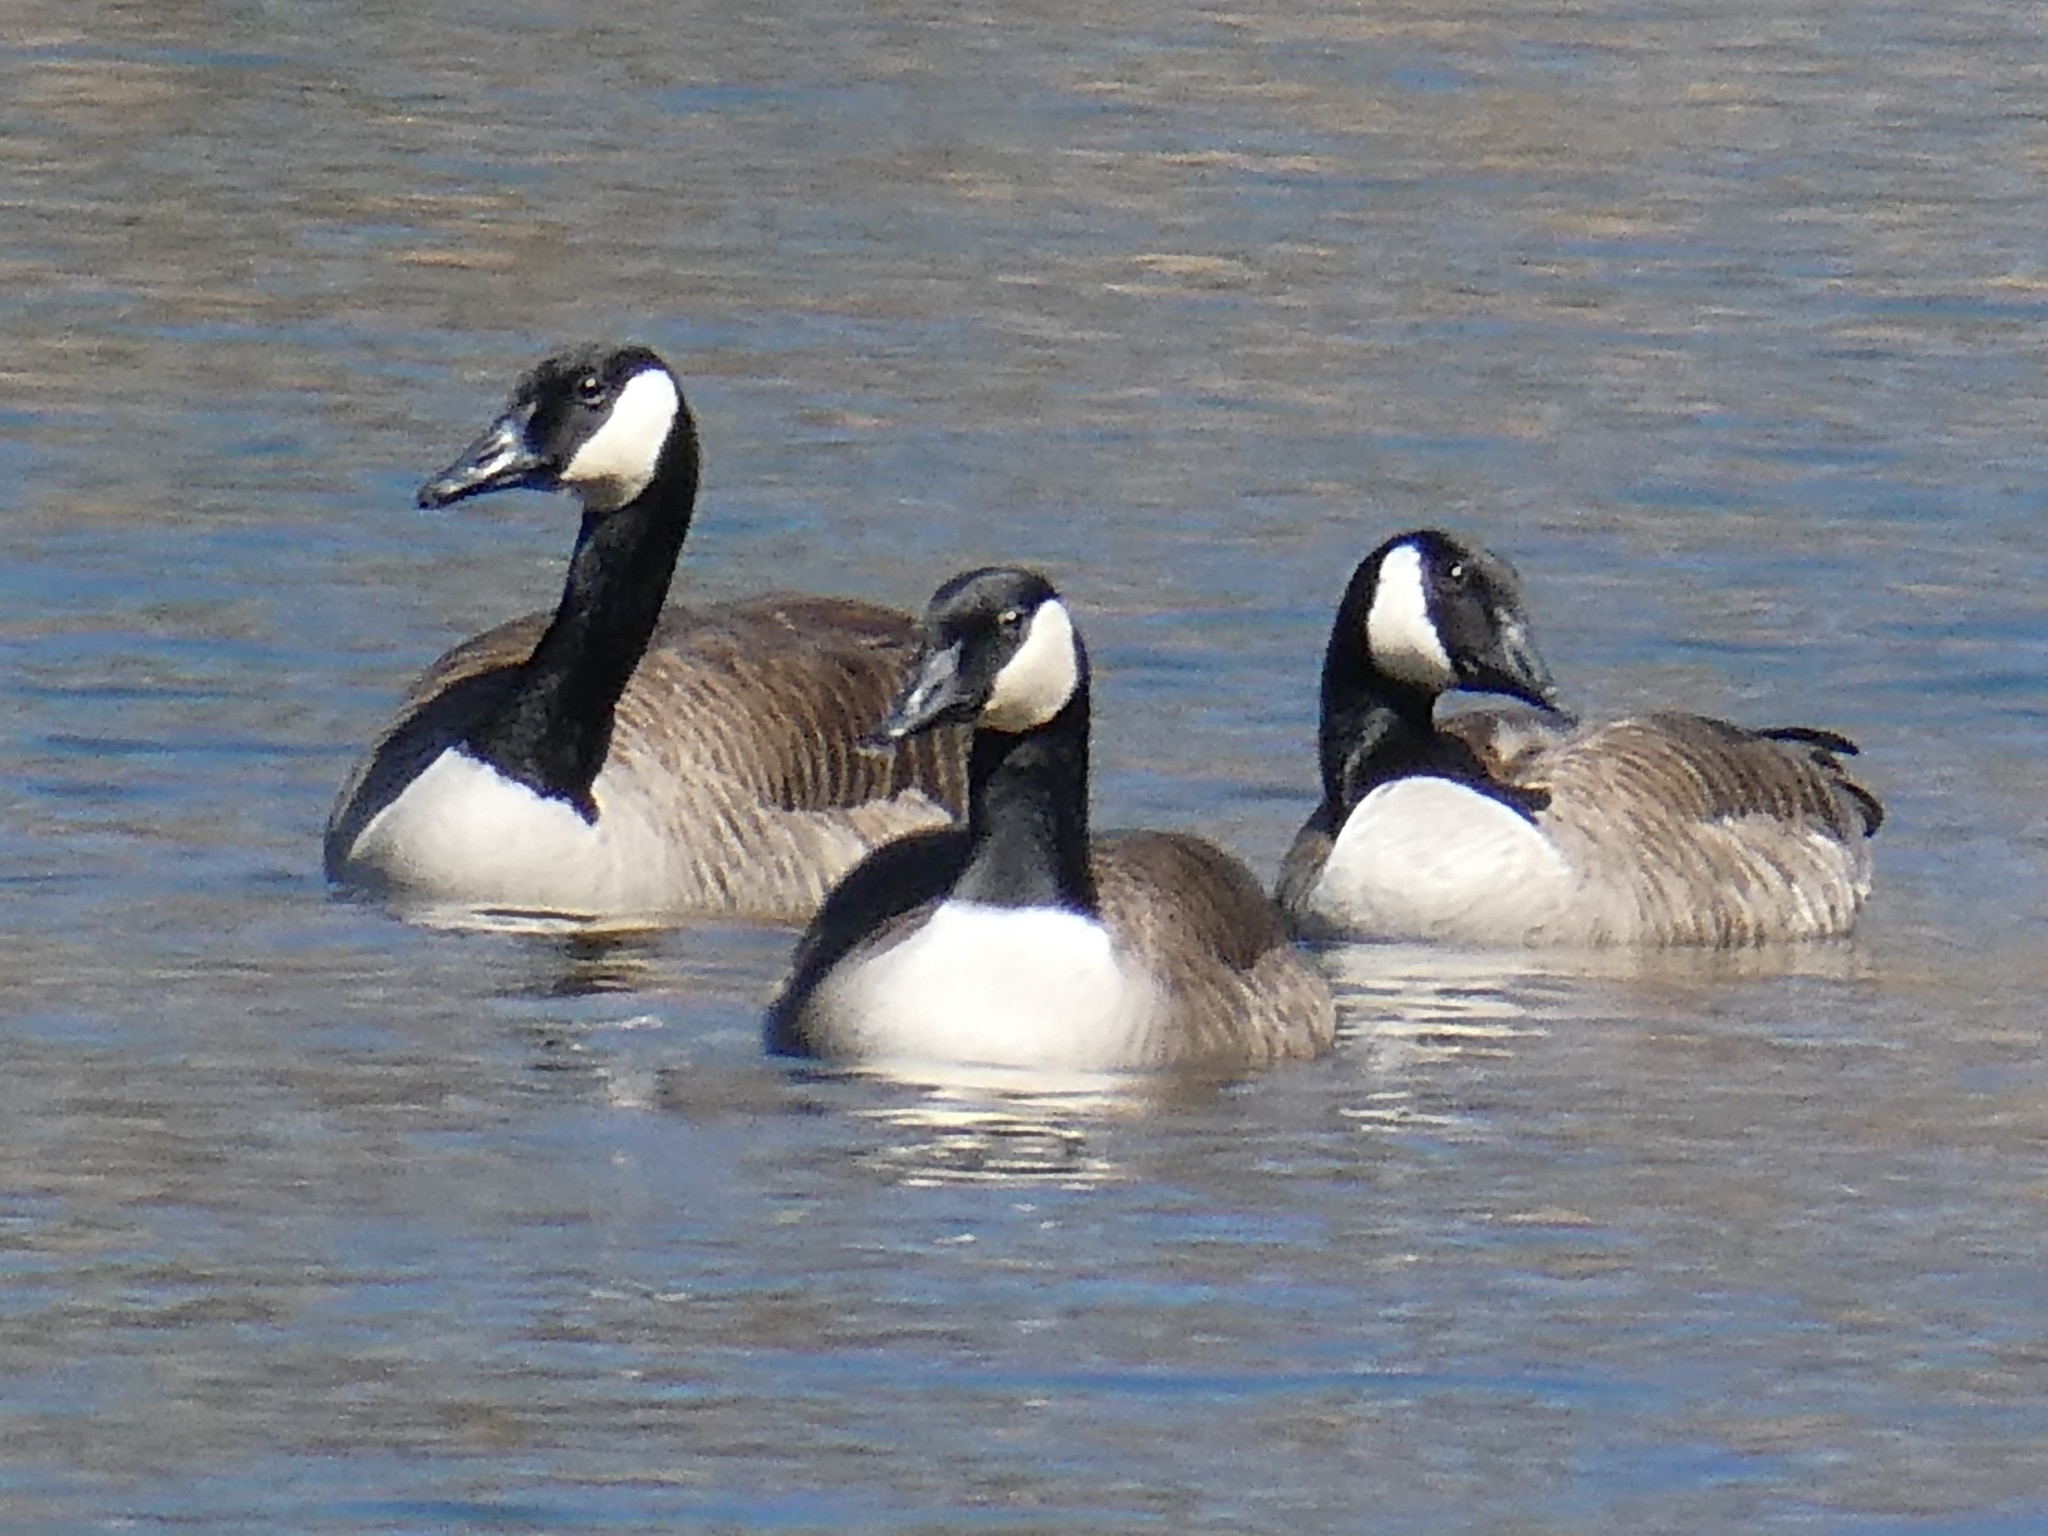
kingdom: Animalia
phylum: Chordata
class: Aves
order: Anseriformes
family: Anatidae
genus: Branta
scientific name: Branta canadensis
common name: Canada goose
